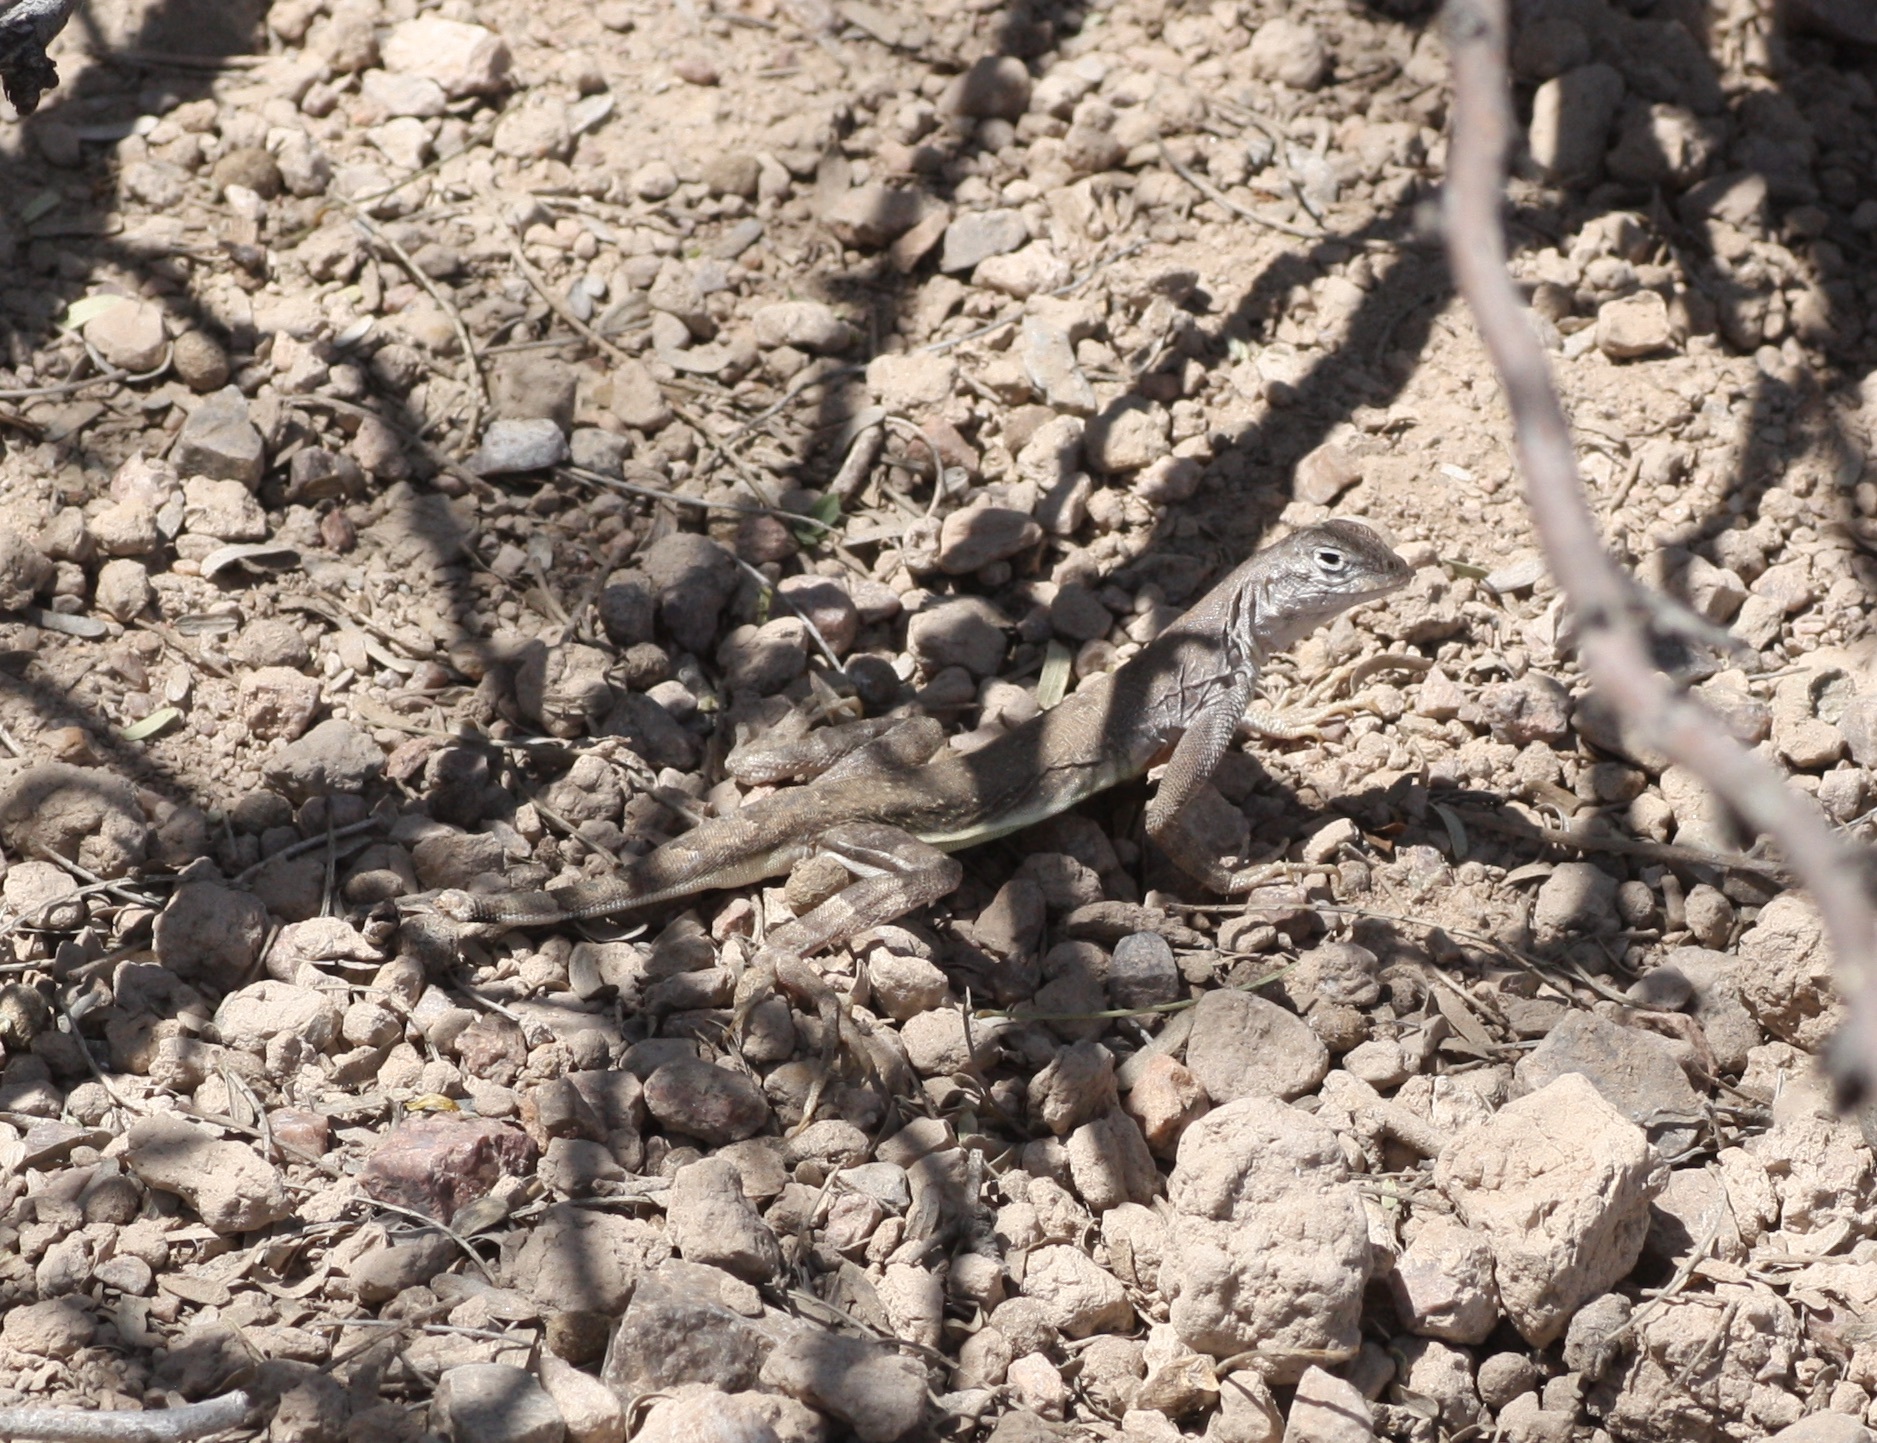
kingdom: Animalia
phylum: Chordata
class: Squamata
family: Phrynosomatidae
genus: Callisaurus
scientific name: Callisaurus draconoides
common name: Zebra-tailed lizard
